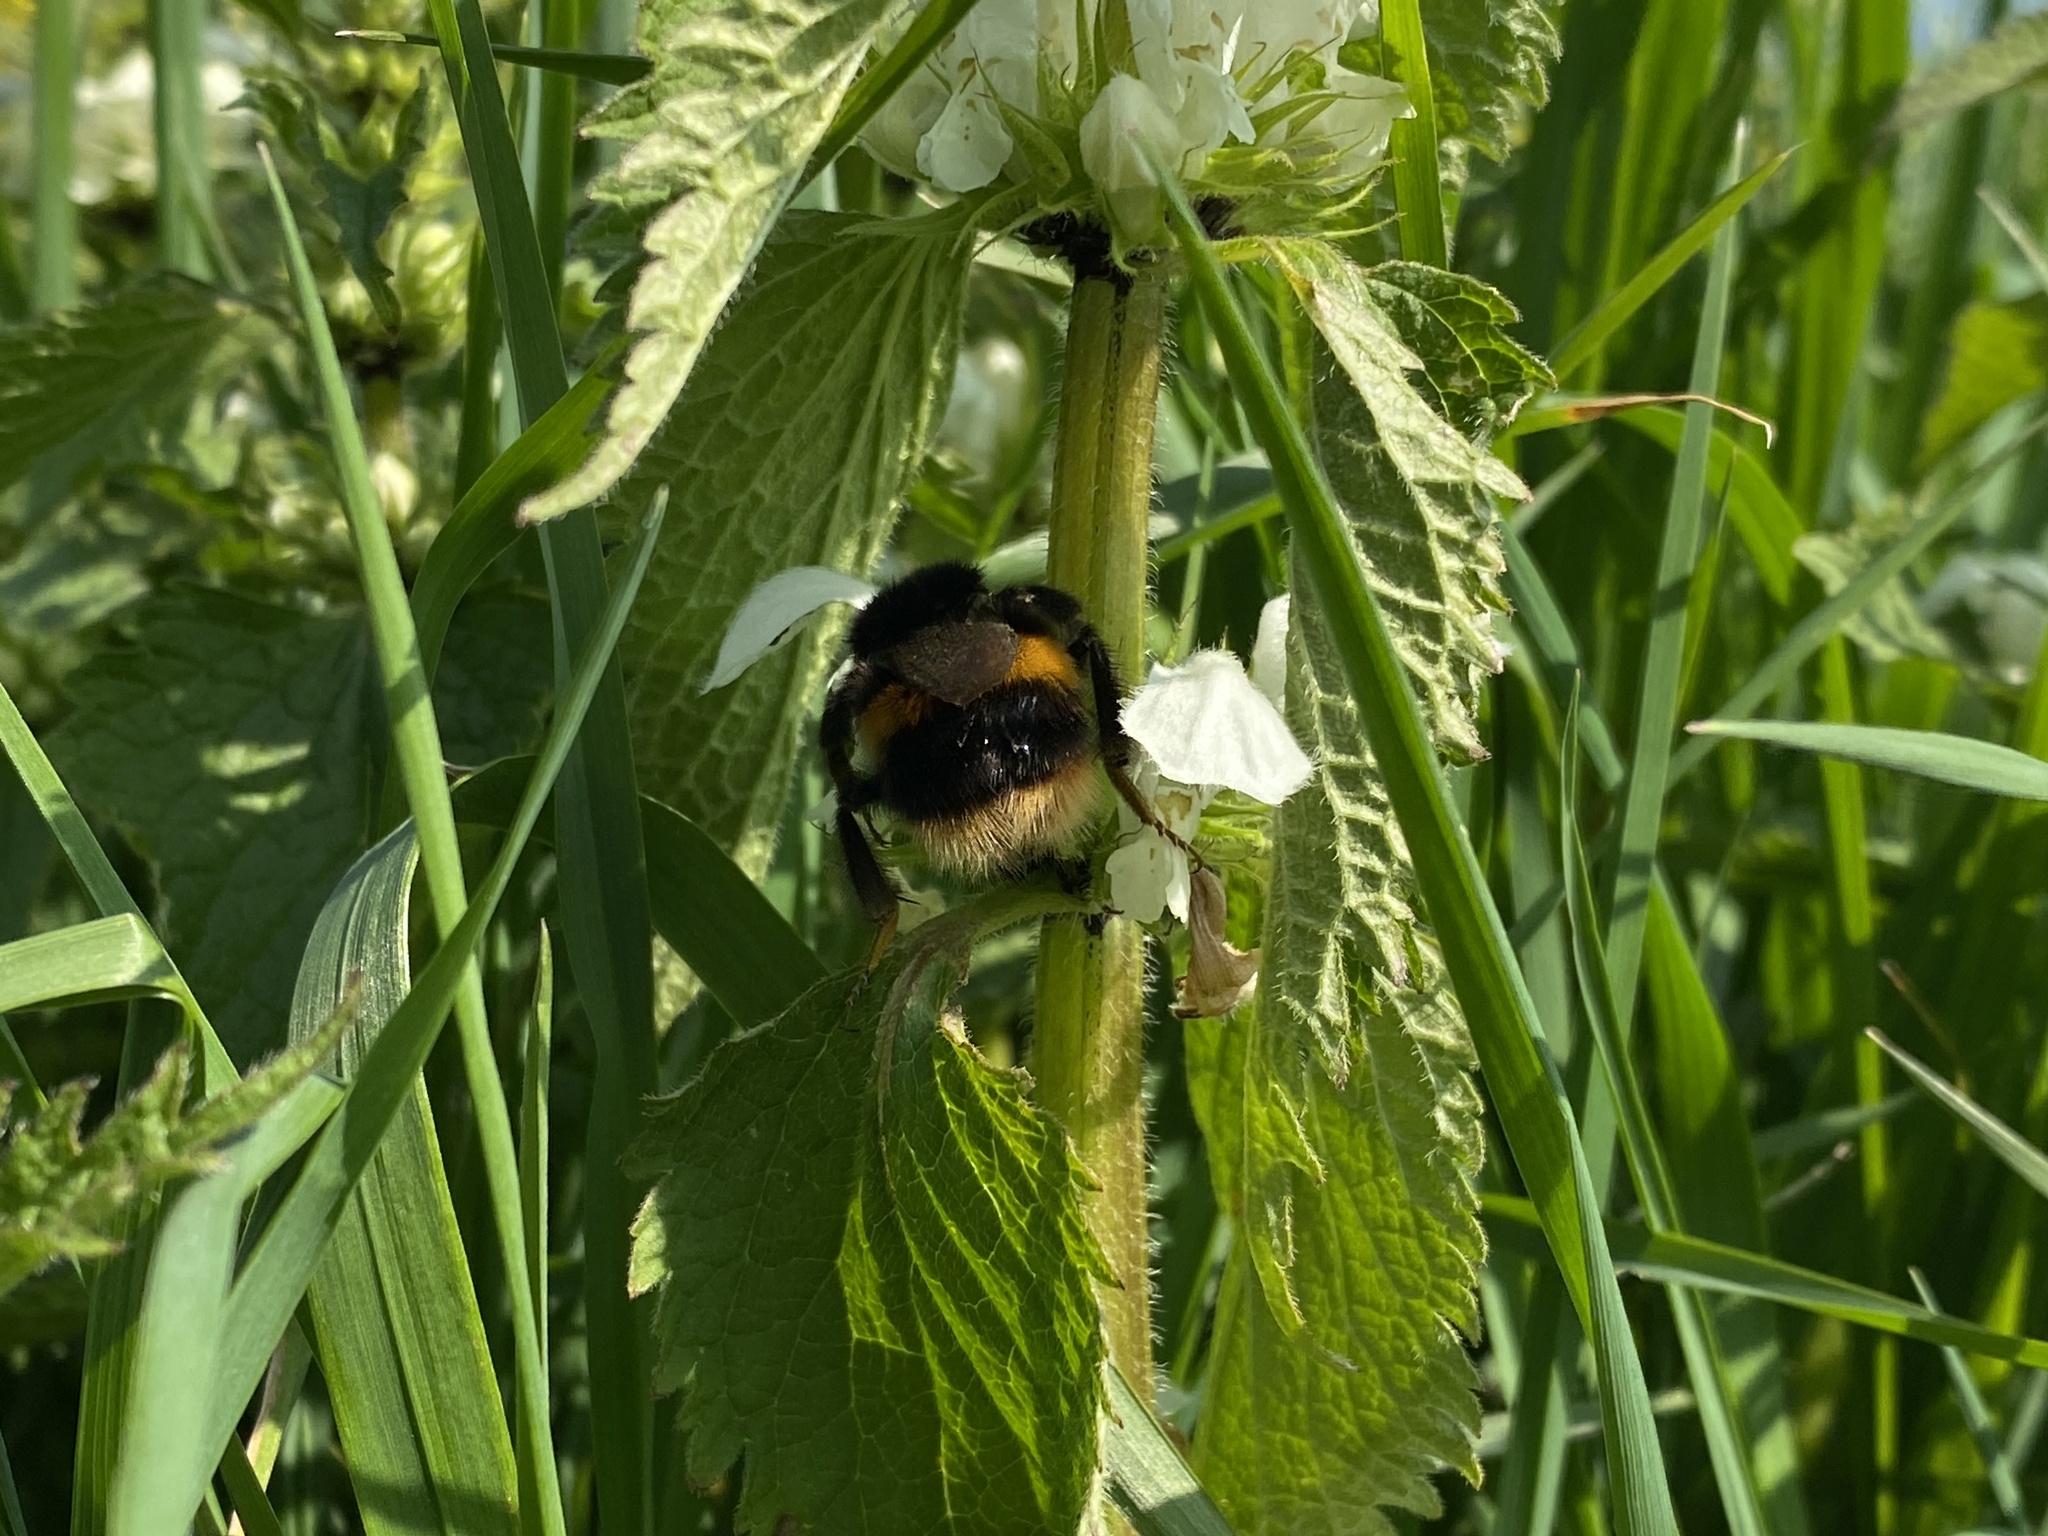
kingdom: Animalia
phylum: Arthropoda
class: Insecta
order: Hymenoptera
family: Apidae
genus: Bombus
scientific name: Bombus terrestris
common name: Buff-tailed bumblebee
